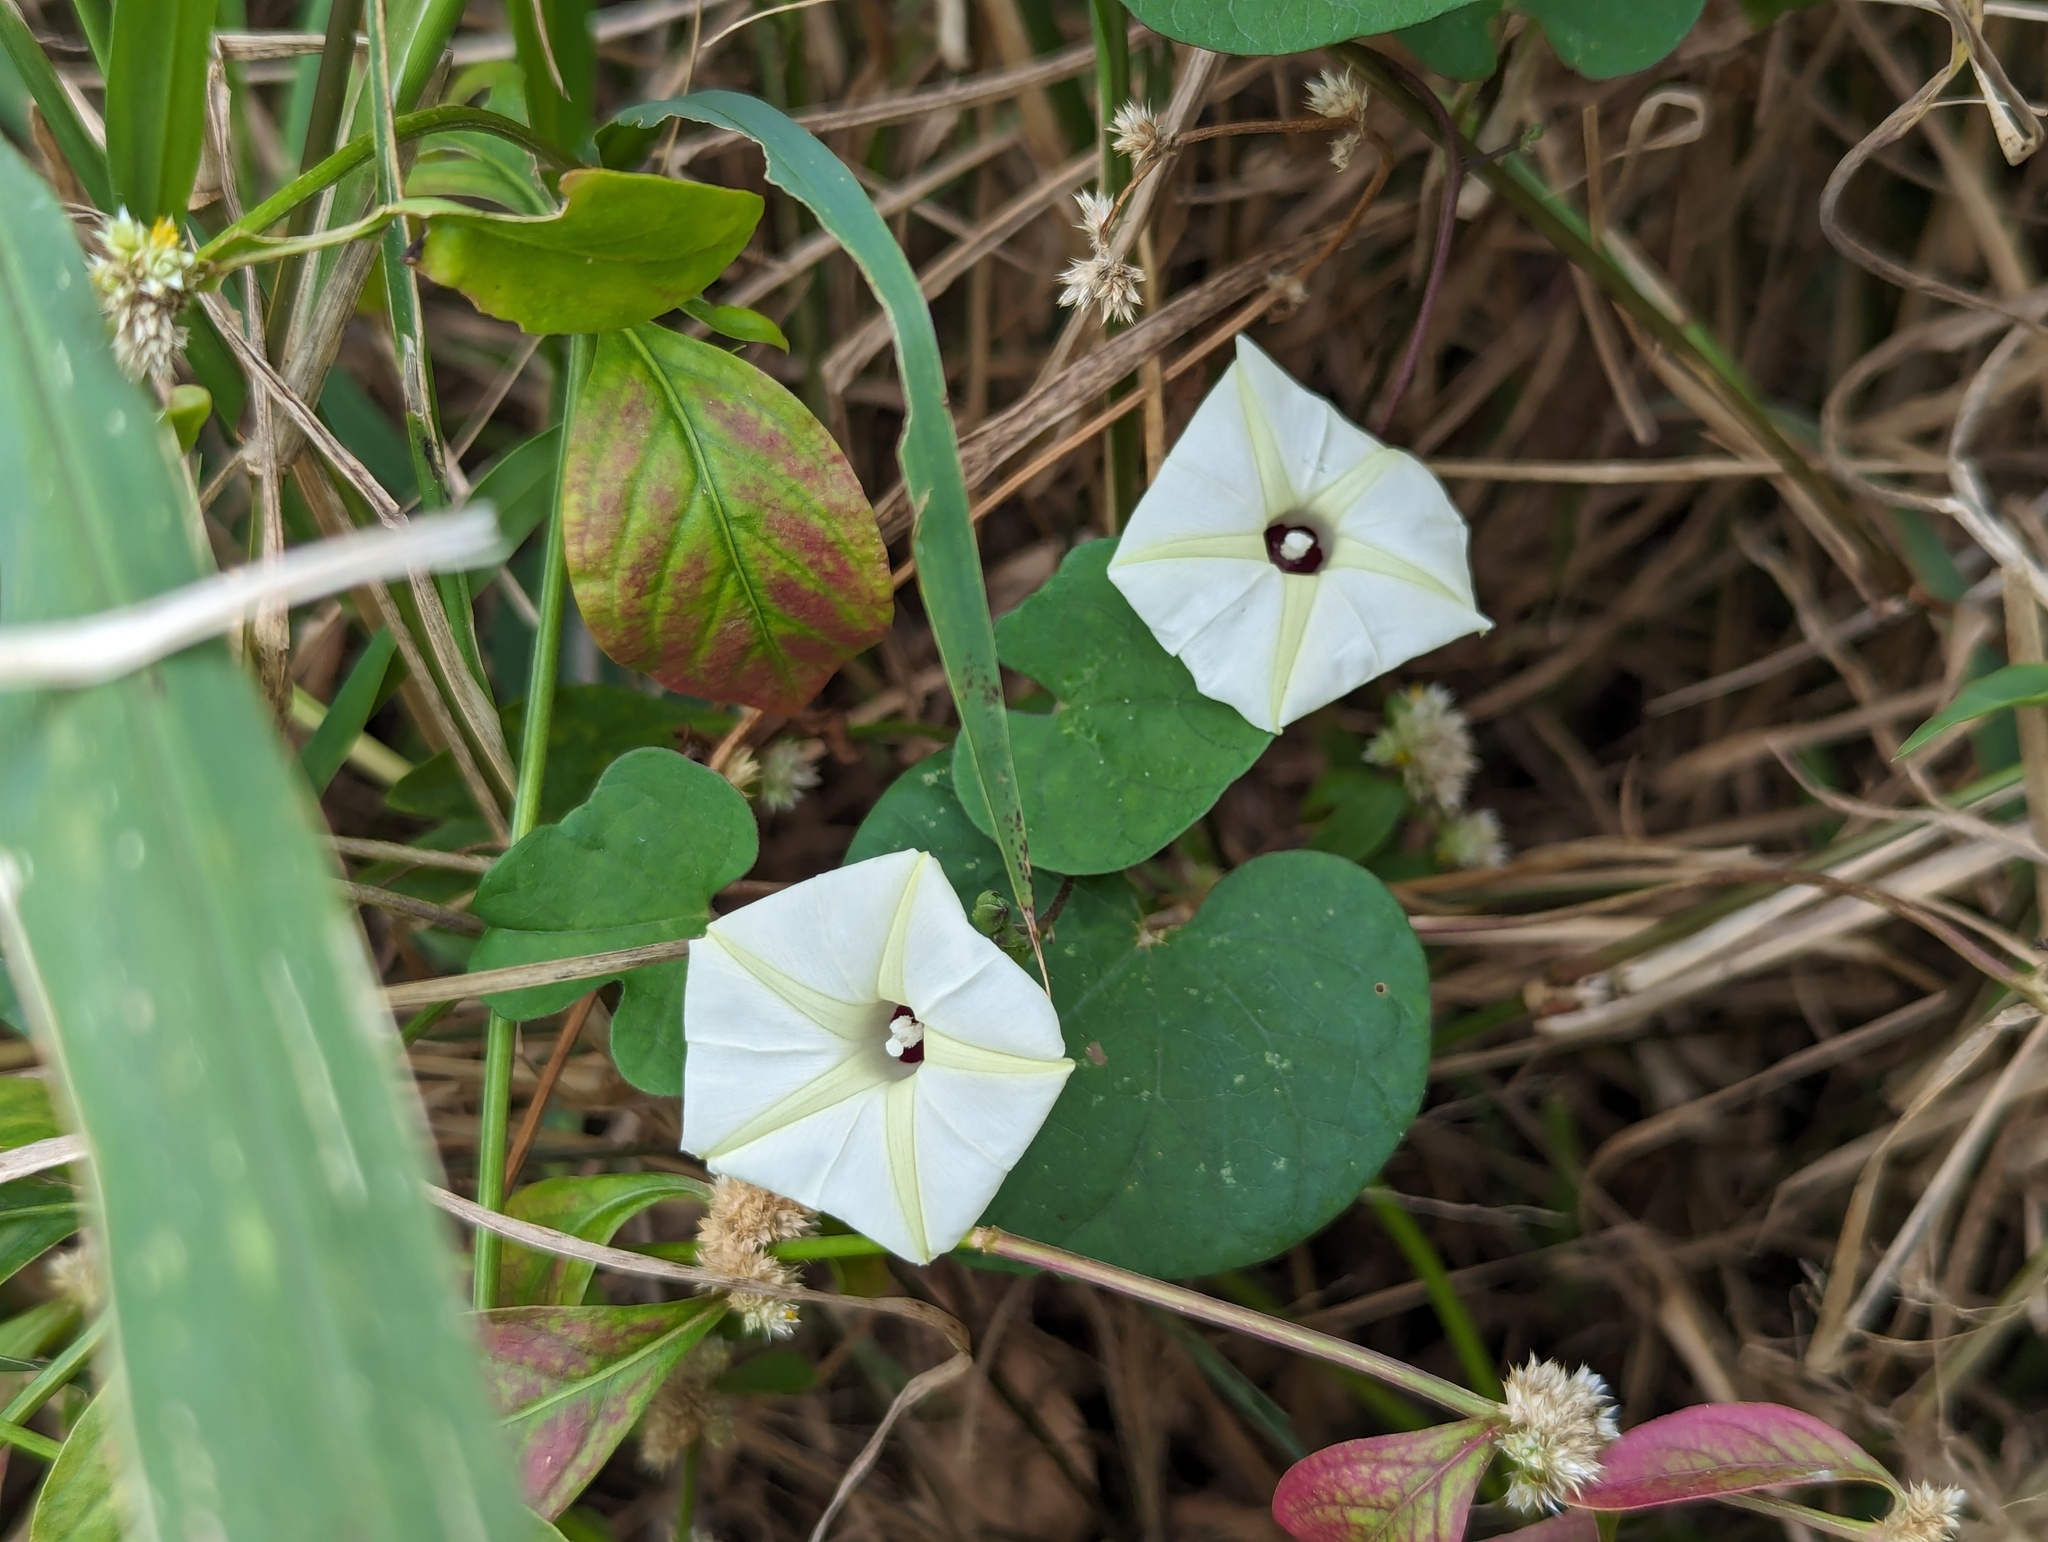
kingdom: Plantae
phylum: Tracheophyta
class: Magnoliopsida
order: Solanales
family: Convolvulaceae
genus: Ipomoea
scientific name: Ipomoea obscura
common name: Obscure morning-glory
